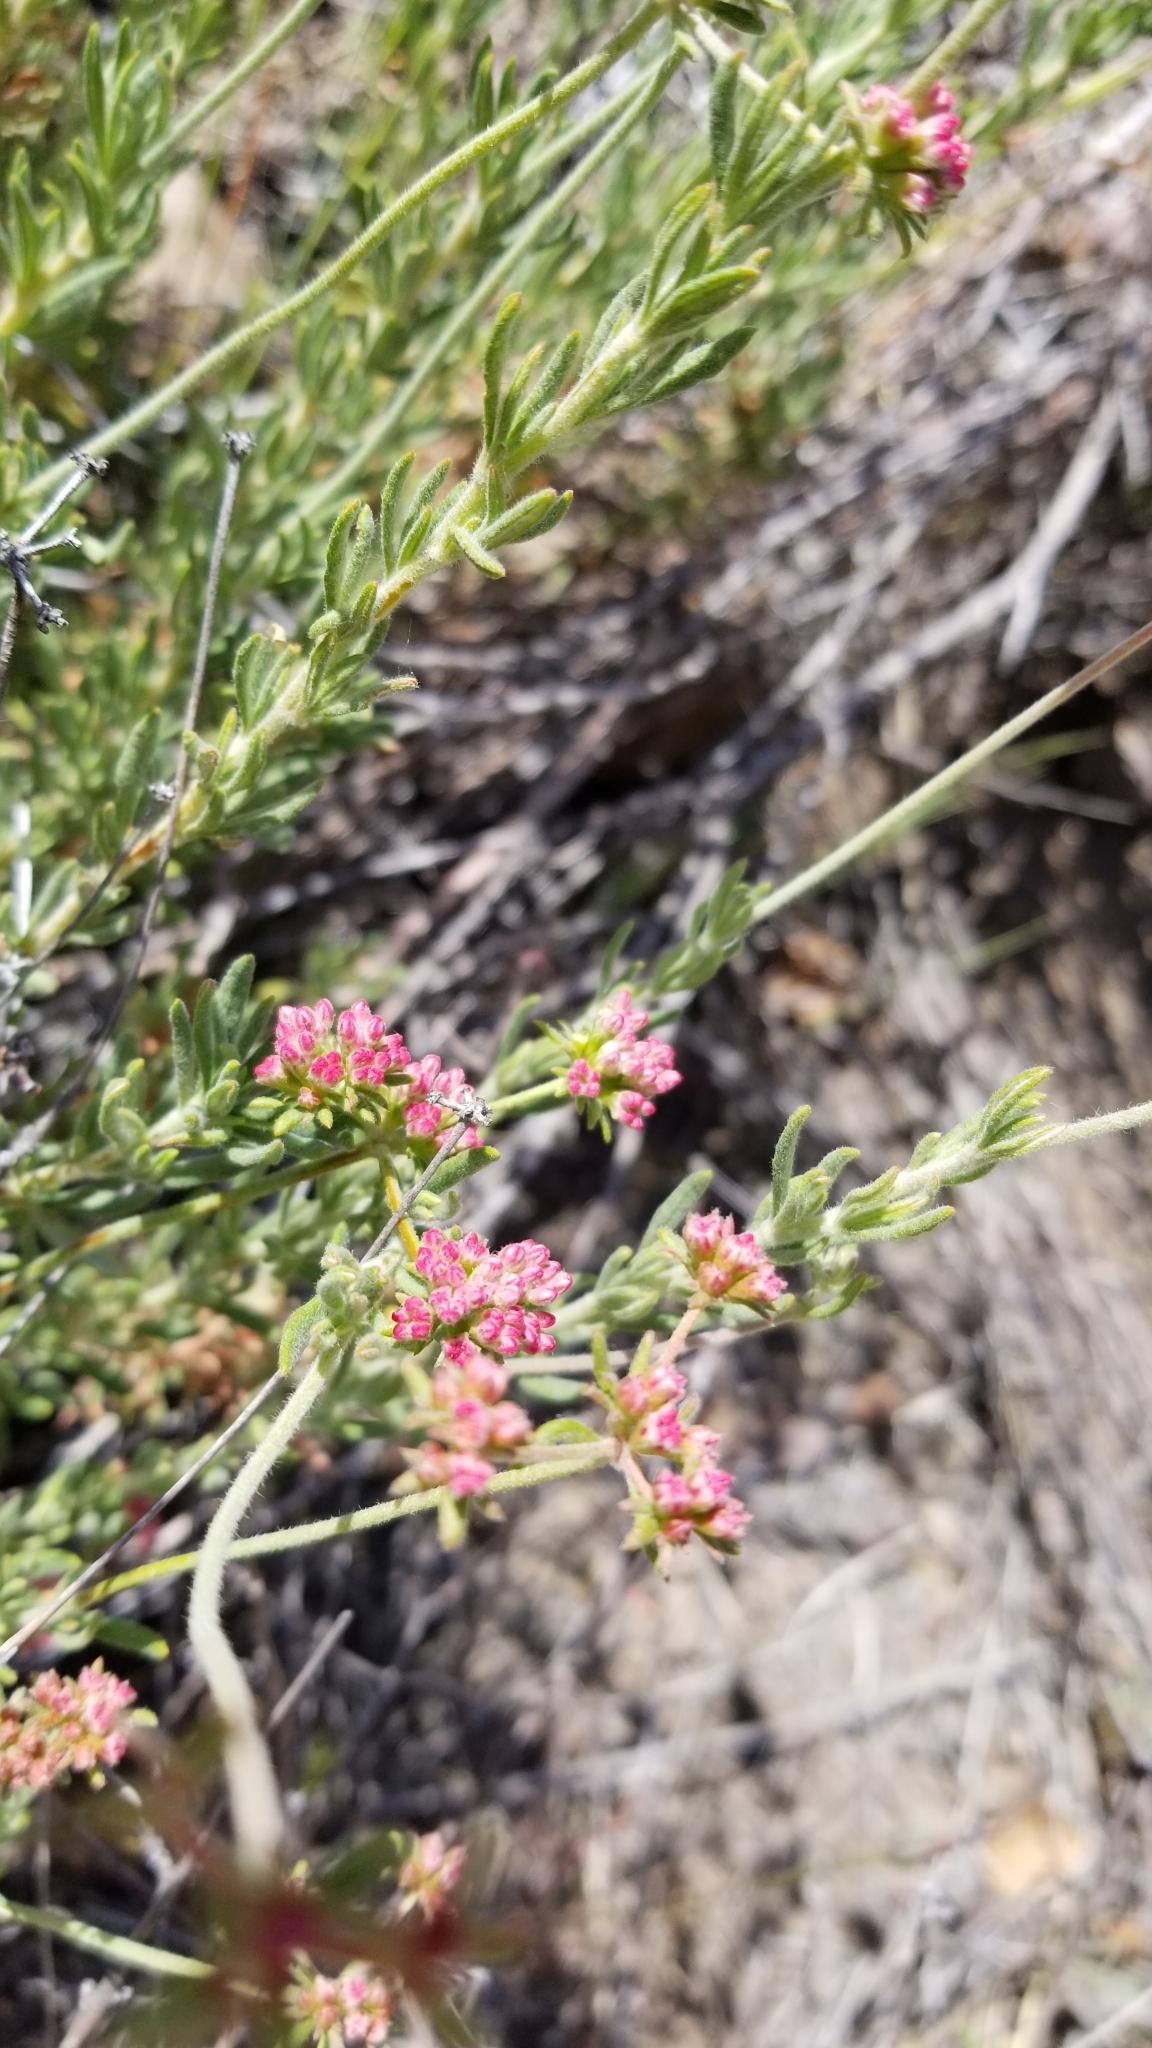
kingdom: Plantae
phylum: Tracheophyta
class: Magnoliopsida
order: Caryophyllales
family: Polygonaceae
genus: Eriogonum
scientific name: Eriogonum fasciculatum
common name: California wild buckwheat
